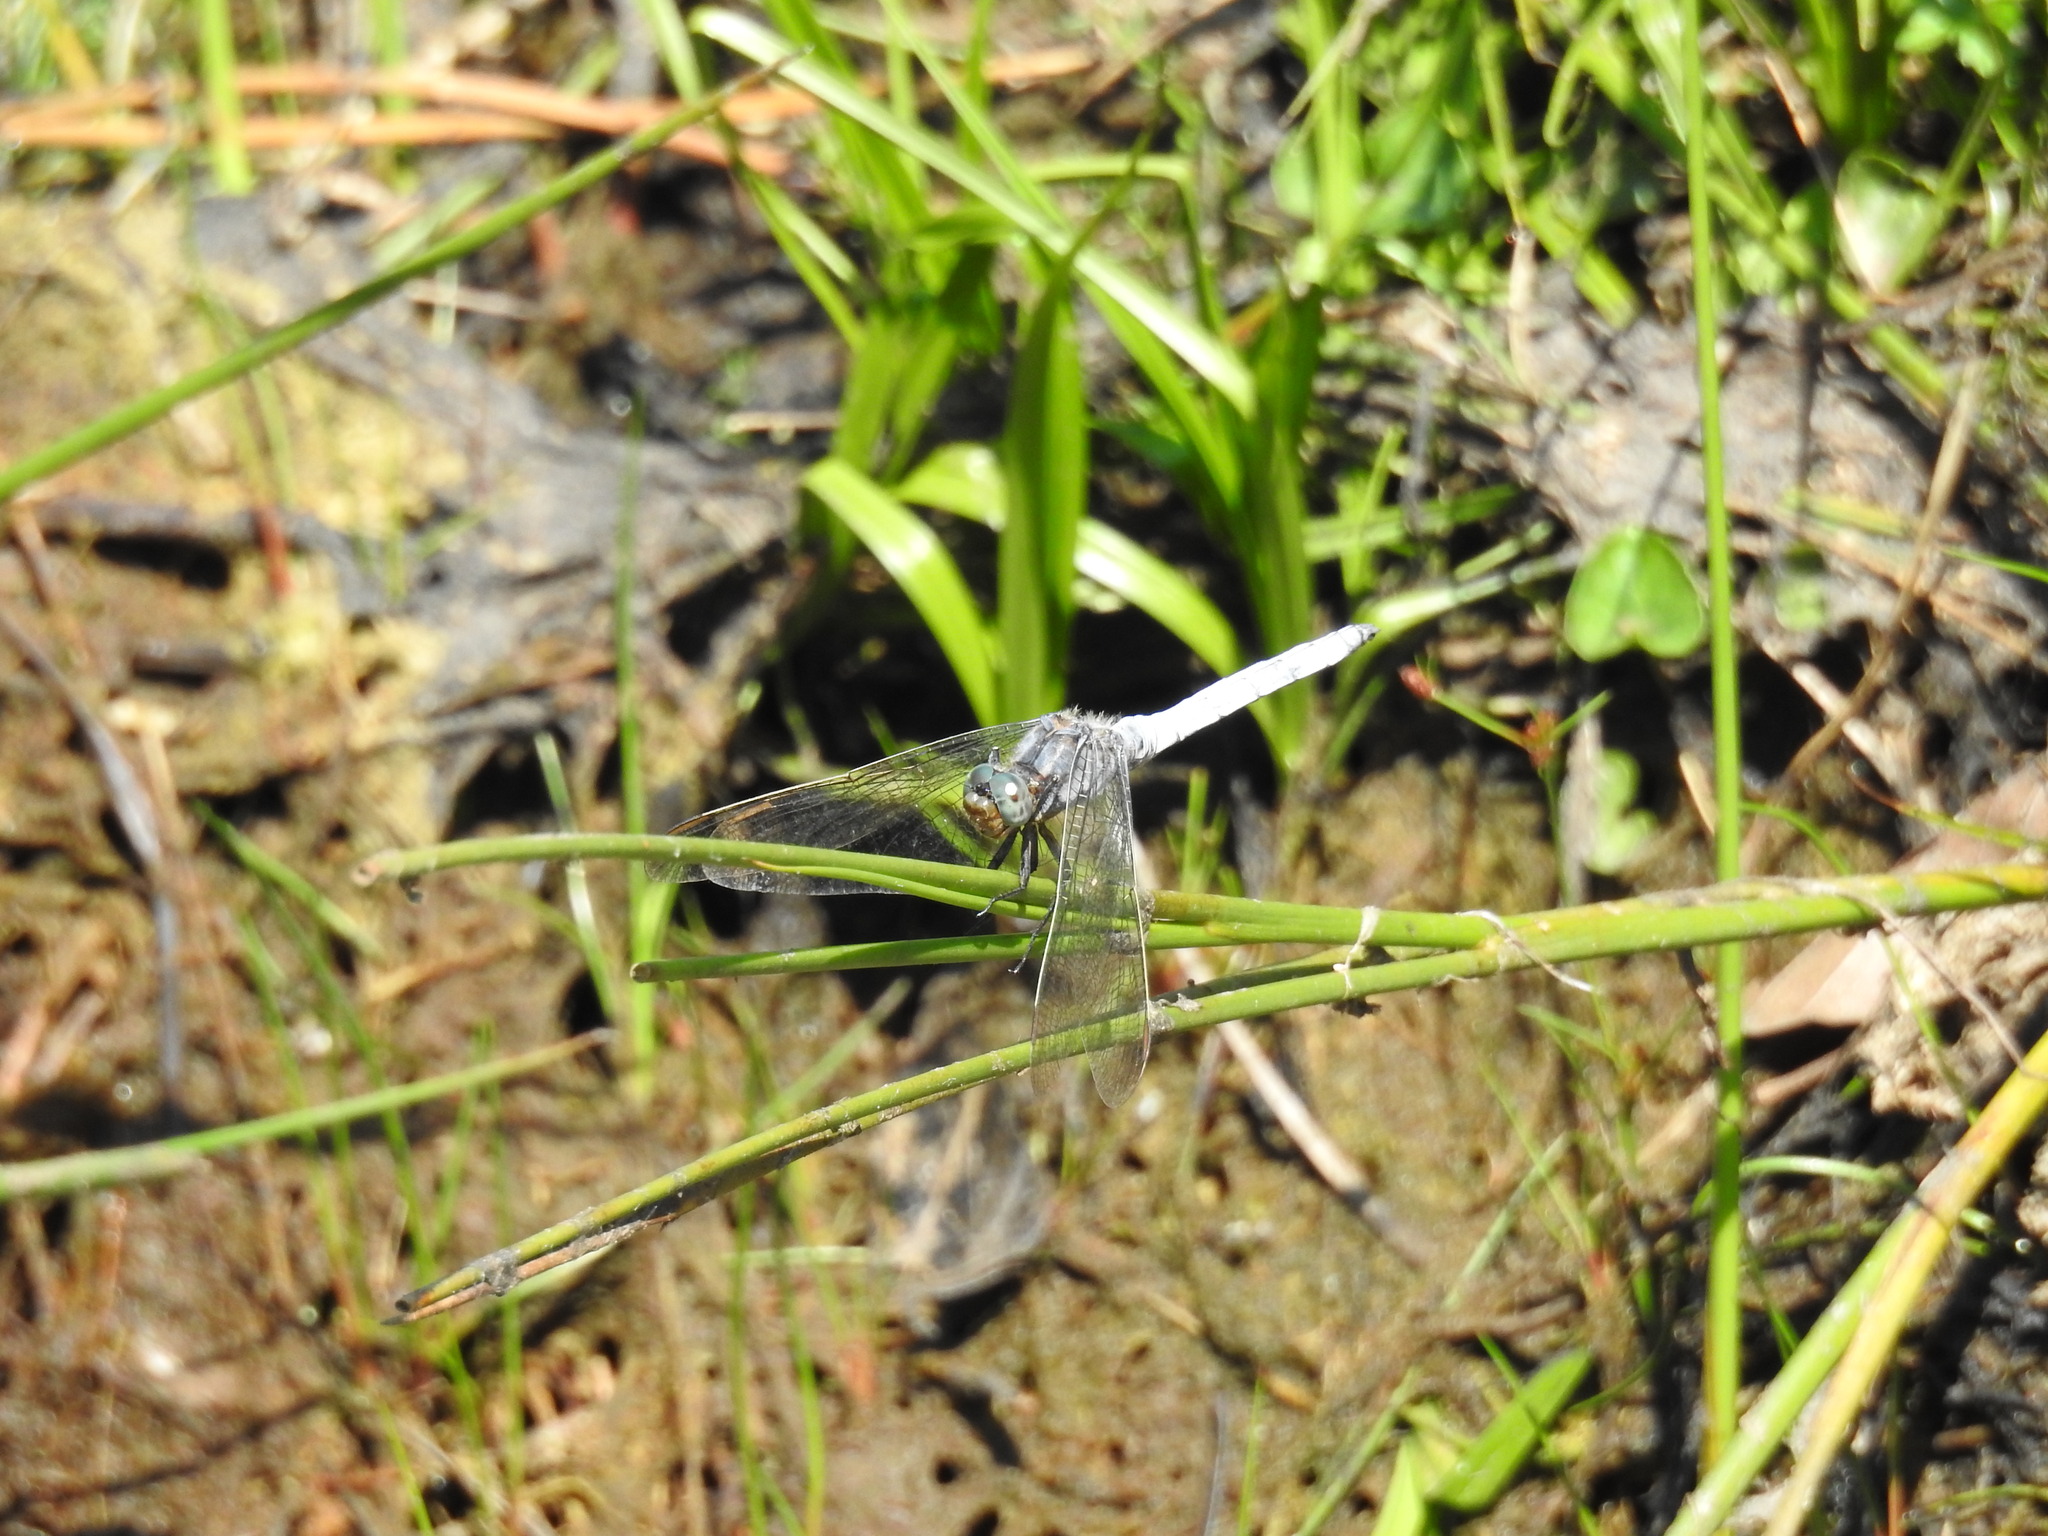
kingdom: Animalia
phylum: Arthropoda
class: Insecta
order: Odonata
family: Libellulidae
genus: Orthetrum
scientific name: Orthetrum coerulescens
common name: Keeled skimmer
